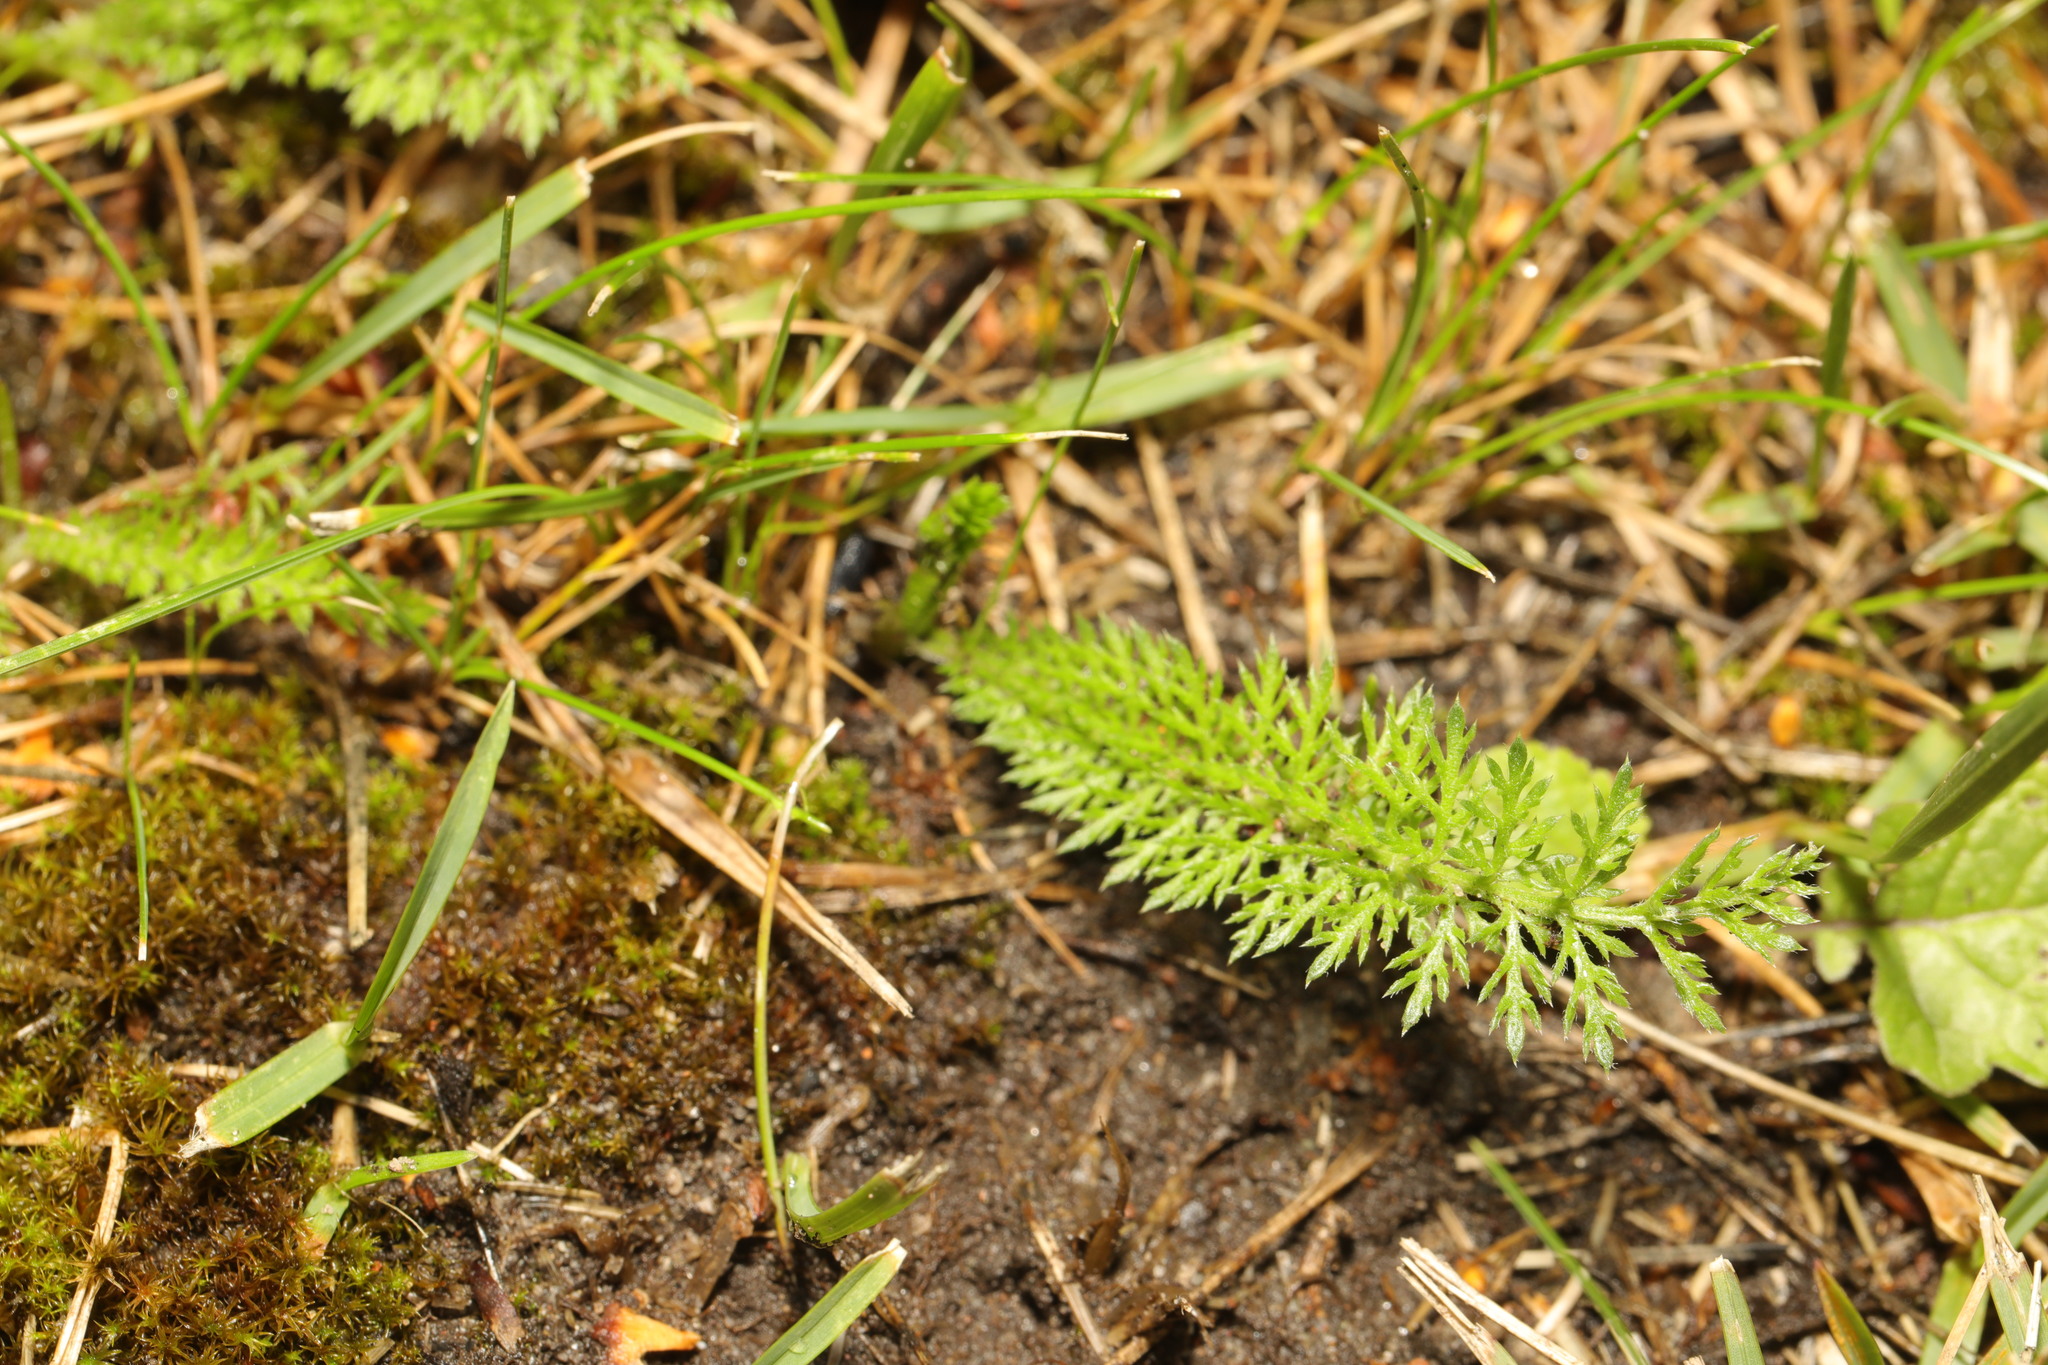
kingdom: Plantae
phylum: Tracheophyta
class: Magnoliopsida
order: Asterales
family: Asteraceae
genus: Achillea
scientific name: Achillea millefolium
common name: Yarrow
